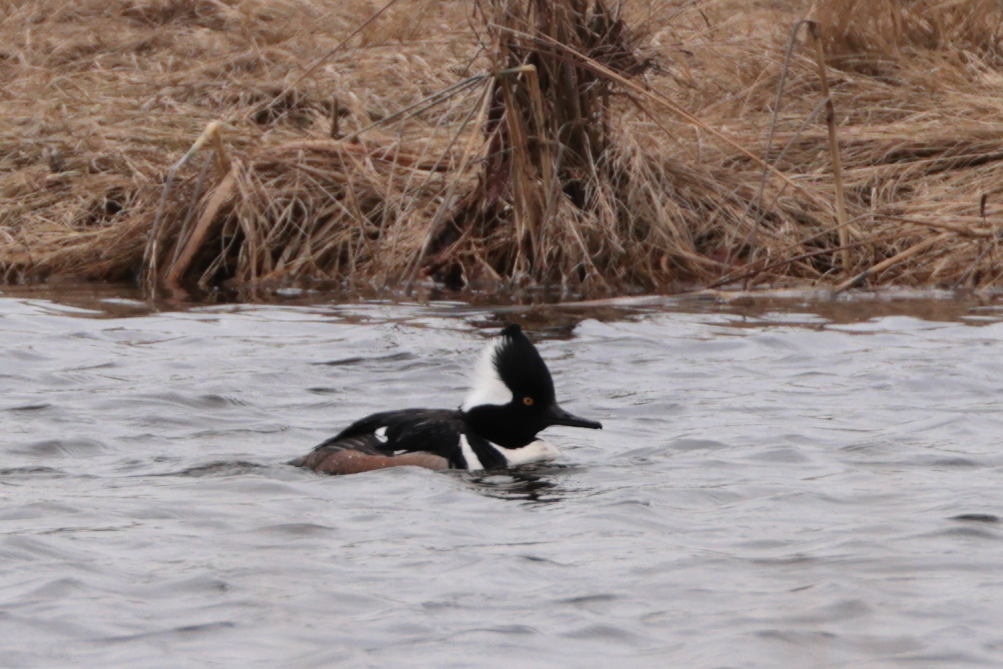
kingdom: Animalia
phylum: Chordata
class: Aves
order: Anseriformes
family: Anatidae
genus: Lophodytes
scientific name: Lophodytes cucullatus
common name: Hooded merganser
